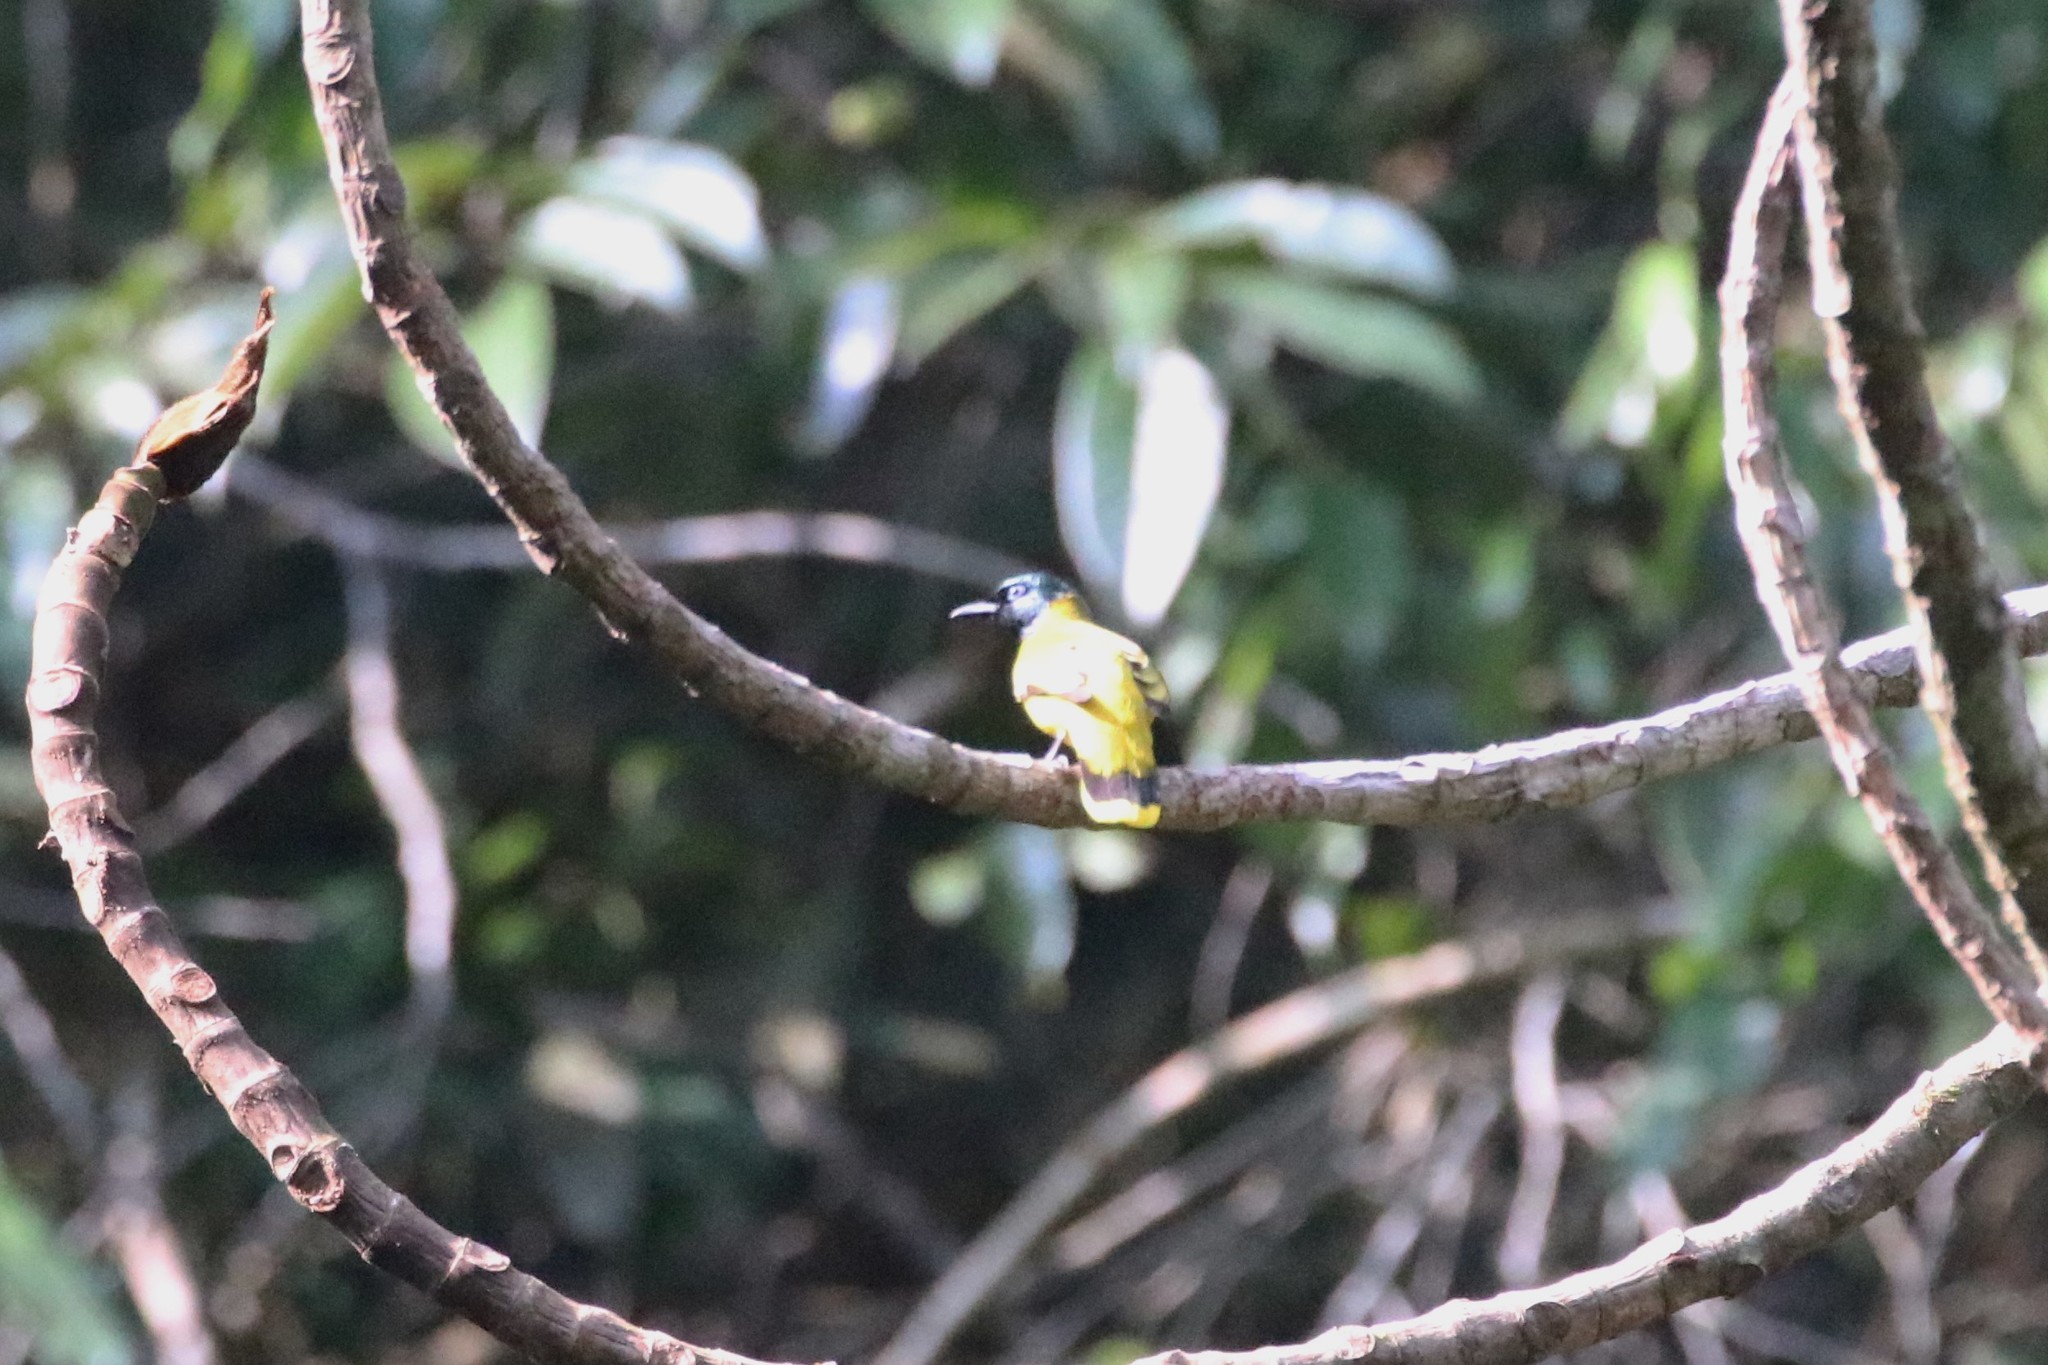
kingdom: Animalia
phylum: Chordata
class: Aves
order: Passeriformes
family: Pycnonotidae
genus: Microtarsus
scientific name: Microtarsus
